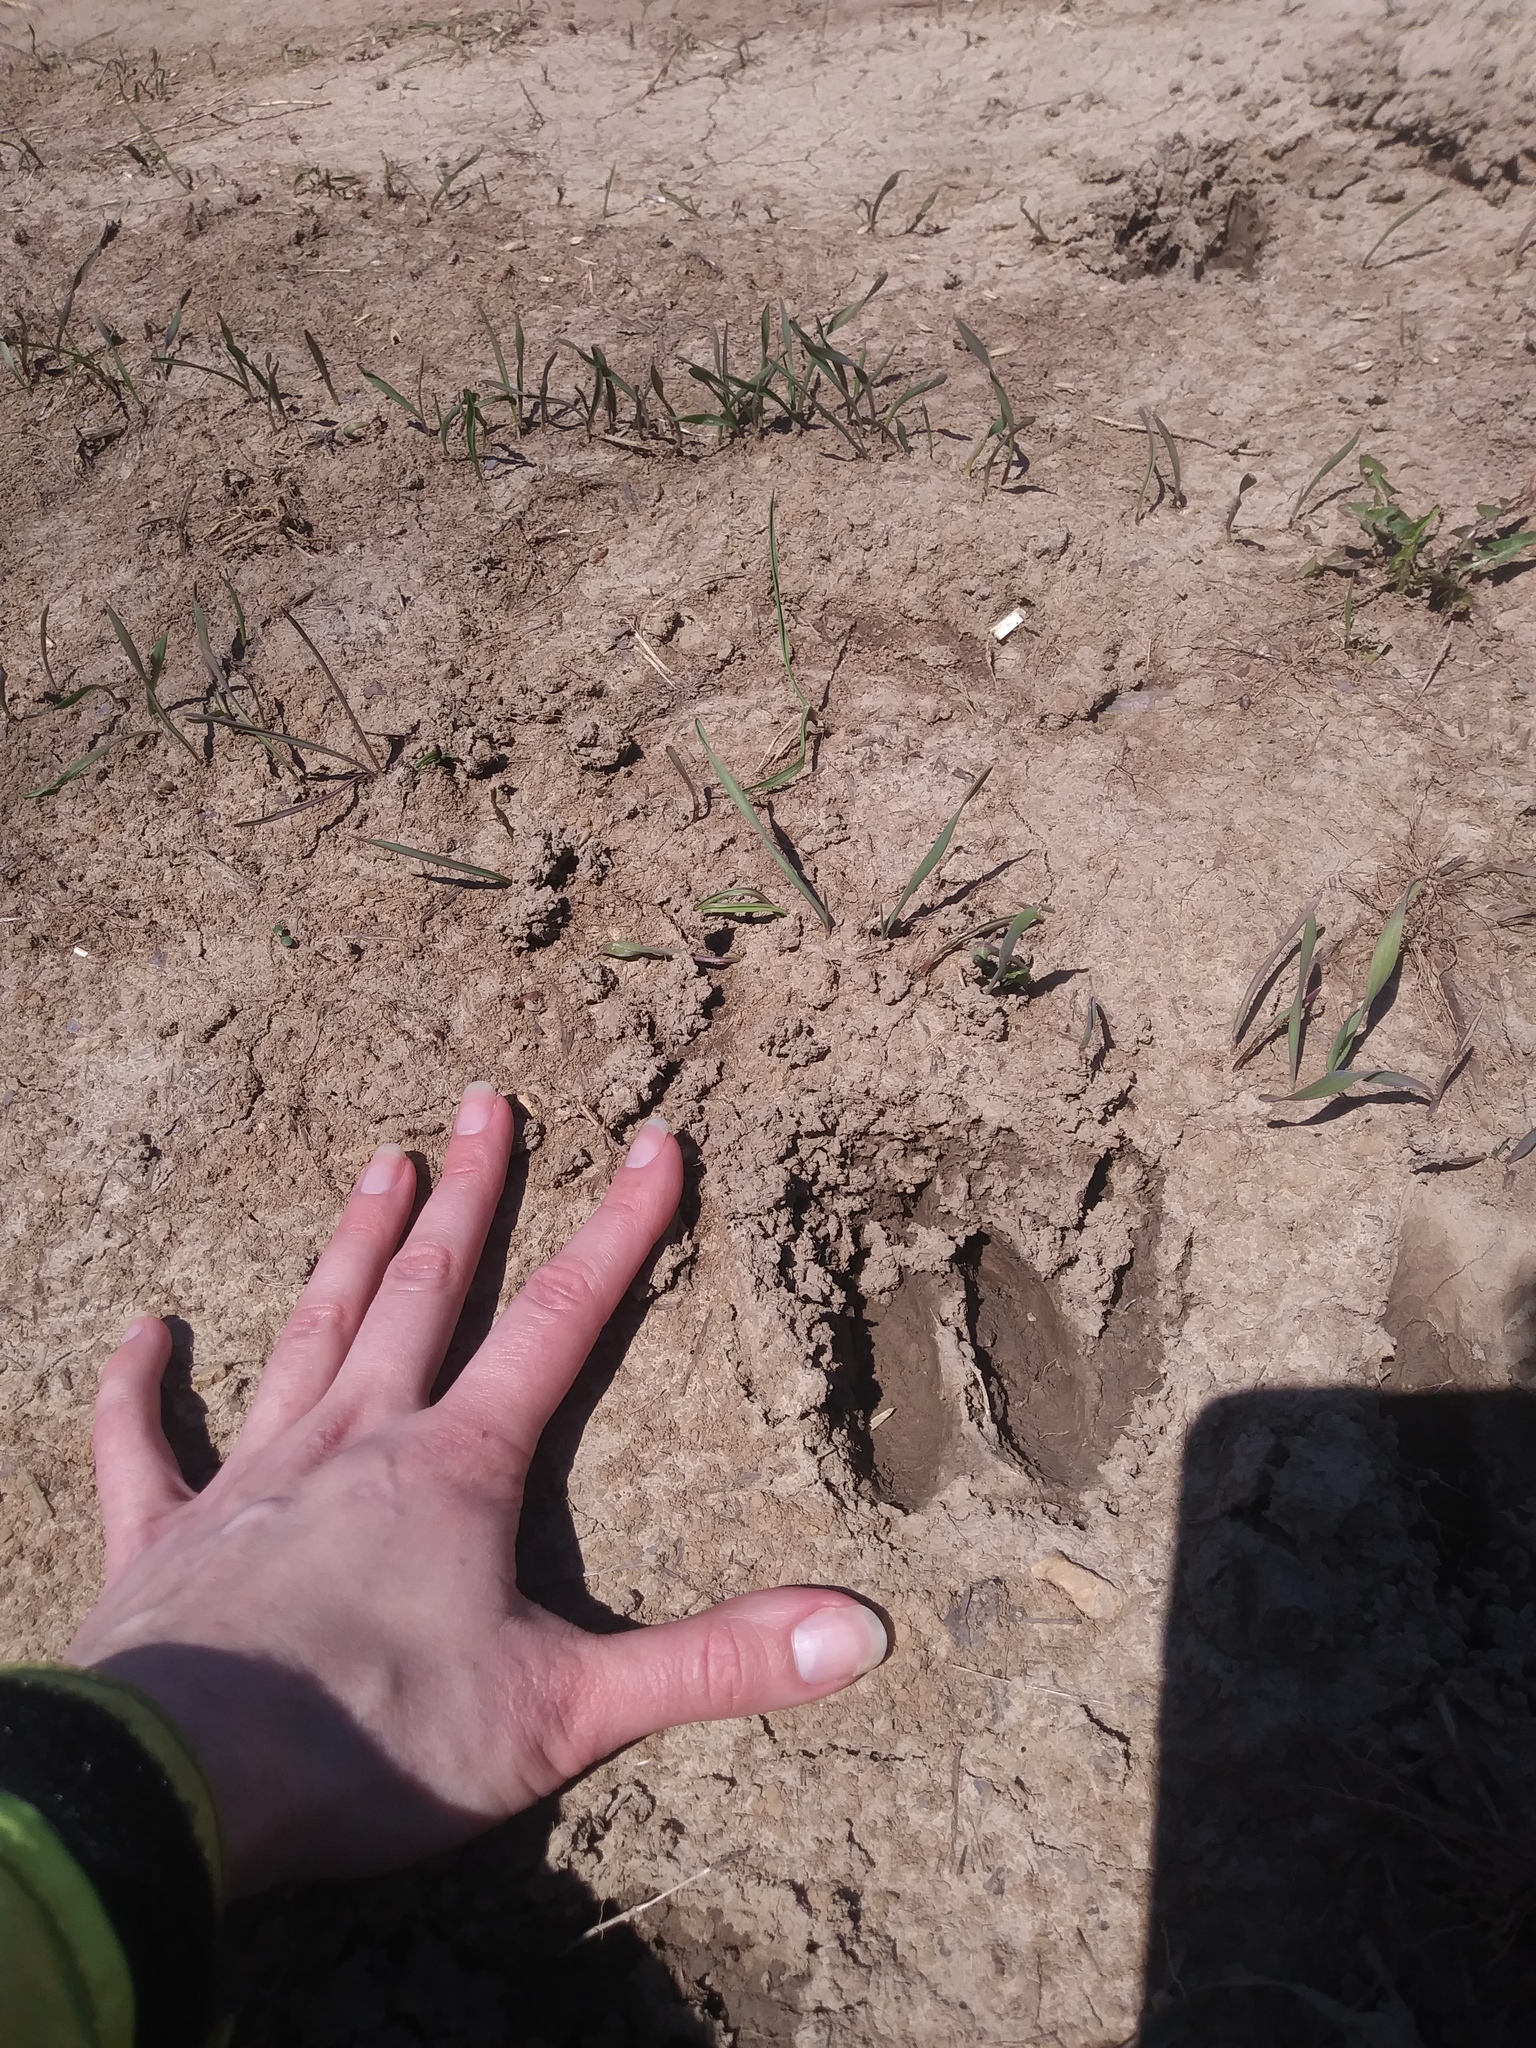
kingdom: Animalia
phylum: Chordata
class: Mammalia
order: Artiodactyla
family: Cervidae
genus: Odocoileus
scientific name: Odocoileus virginianus
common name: White-tailed deer
